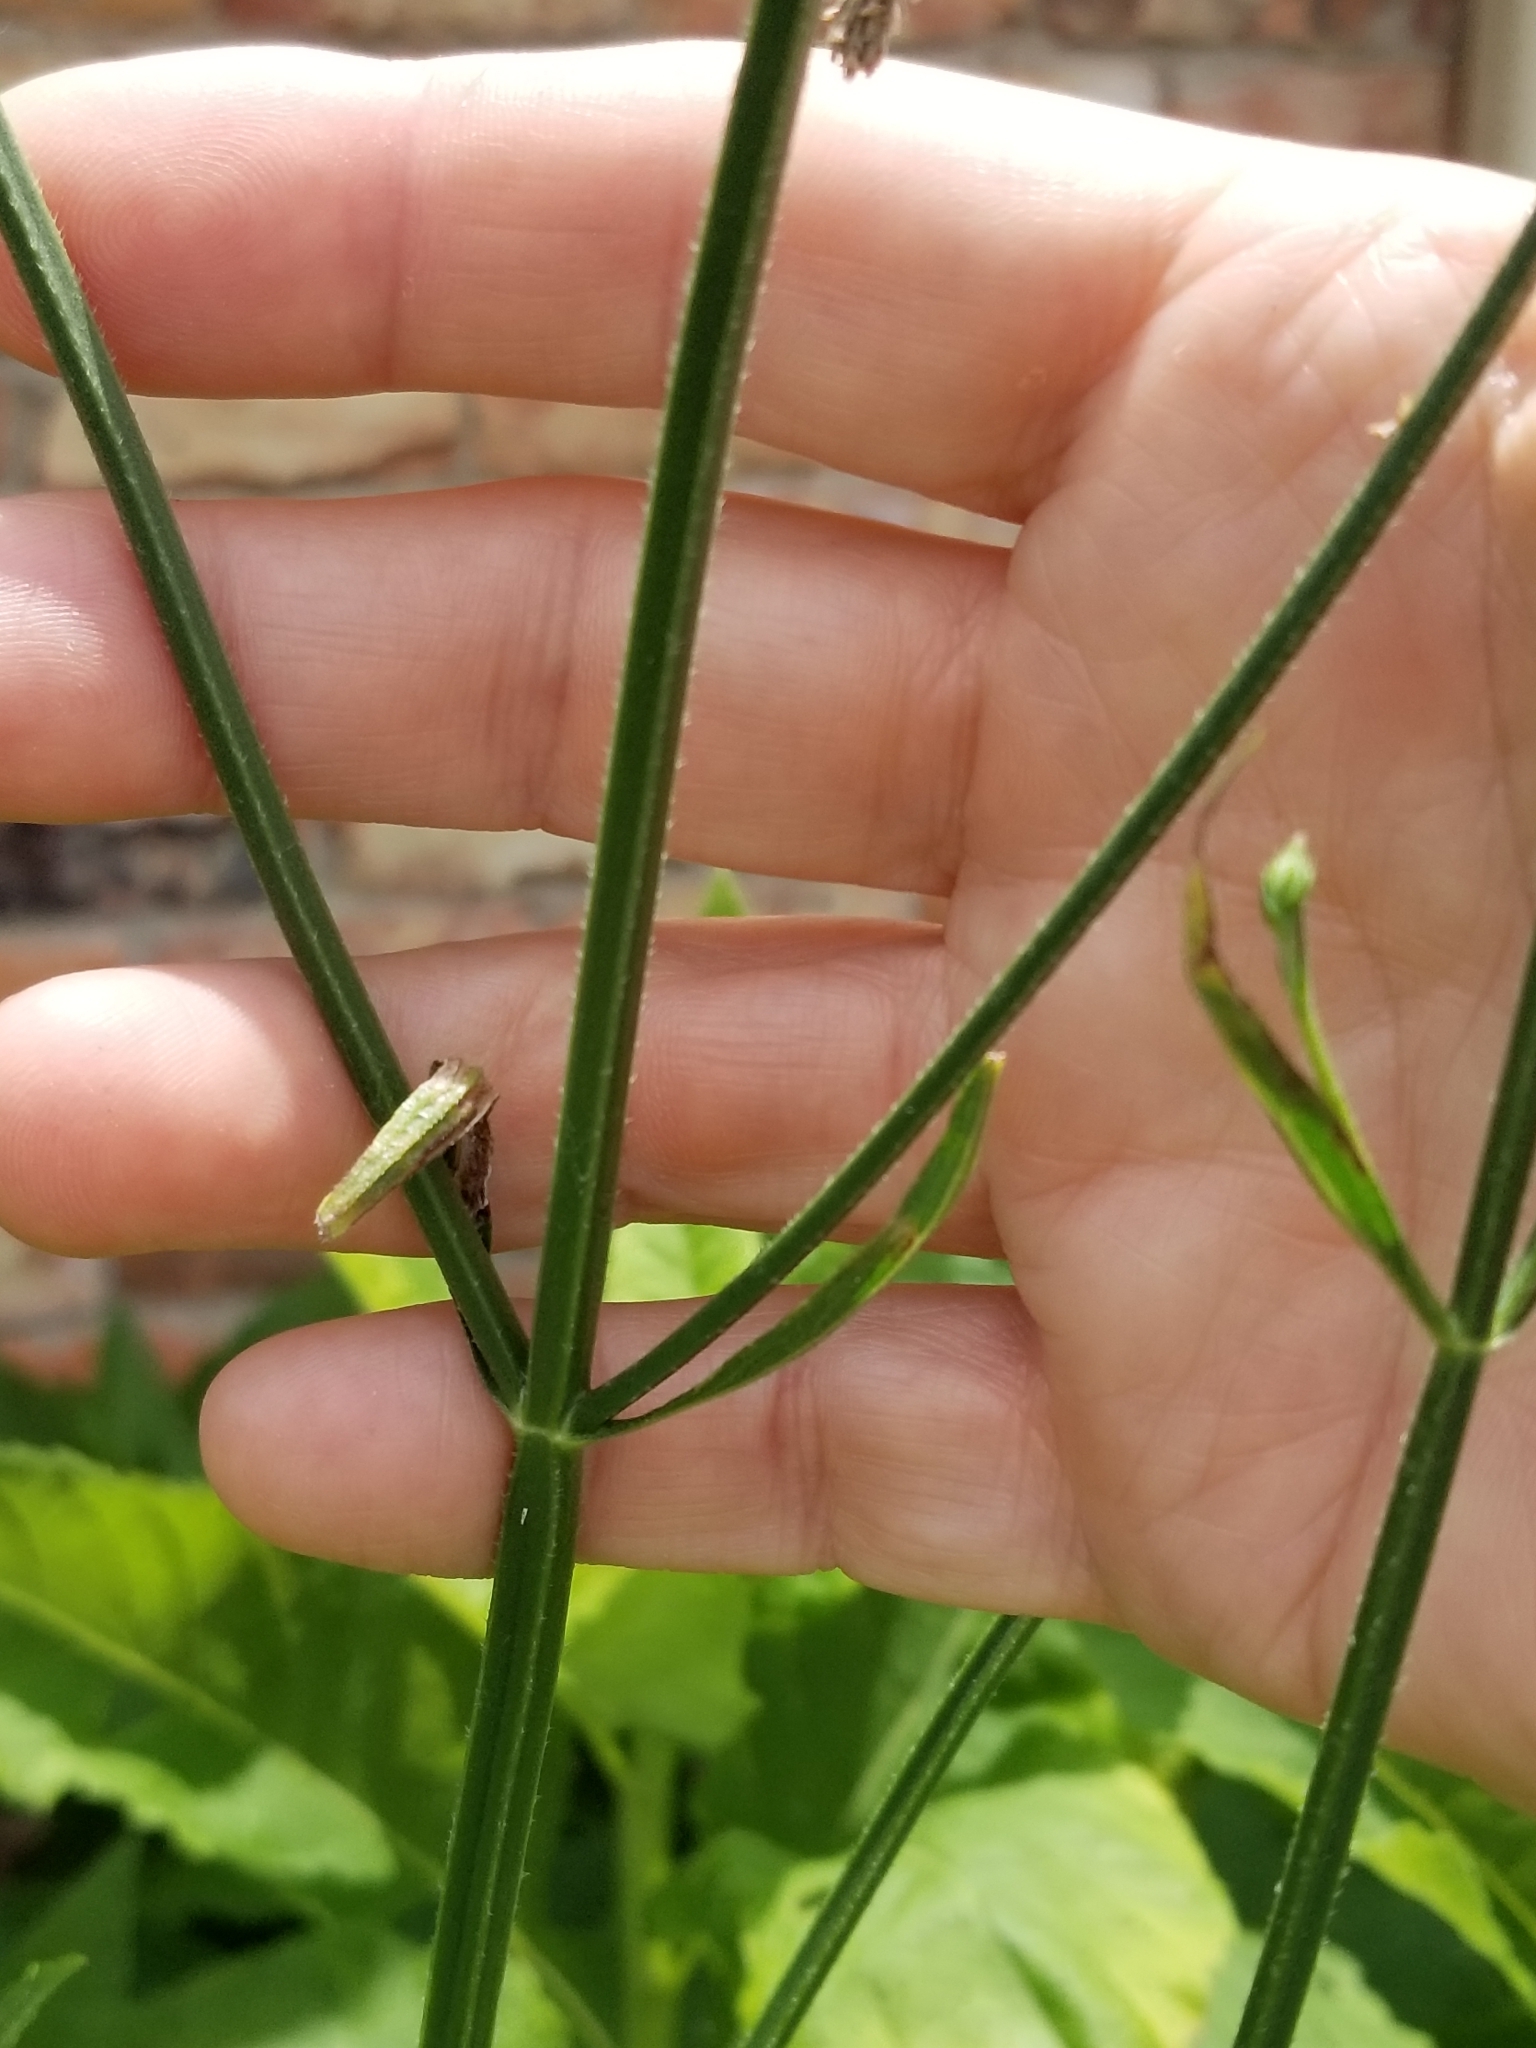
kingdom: Plantae
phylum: Tracheophyta
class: Magnoliopsida
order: Lamiales
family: Verbenaceae
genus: Verbena
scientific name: Verbena brasiliensis
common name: Brazilian vervain
